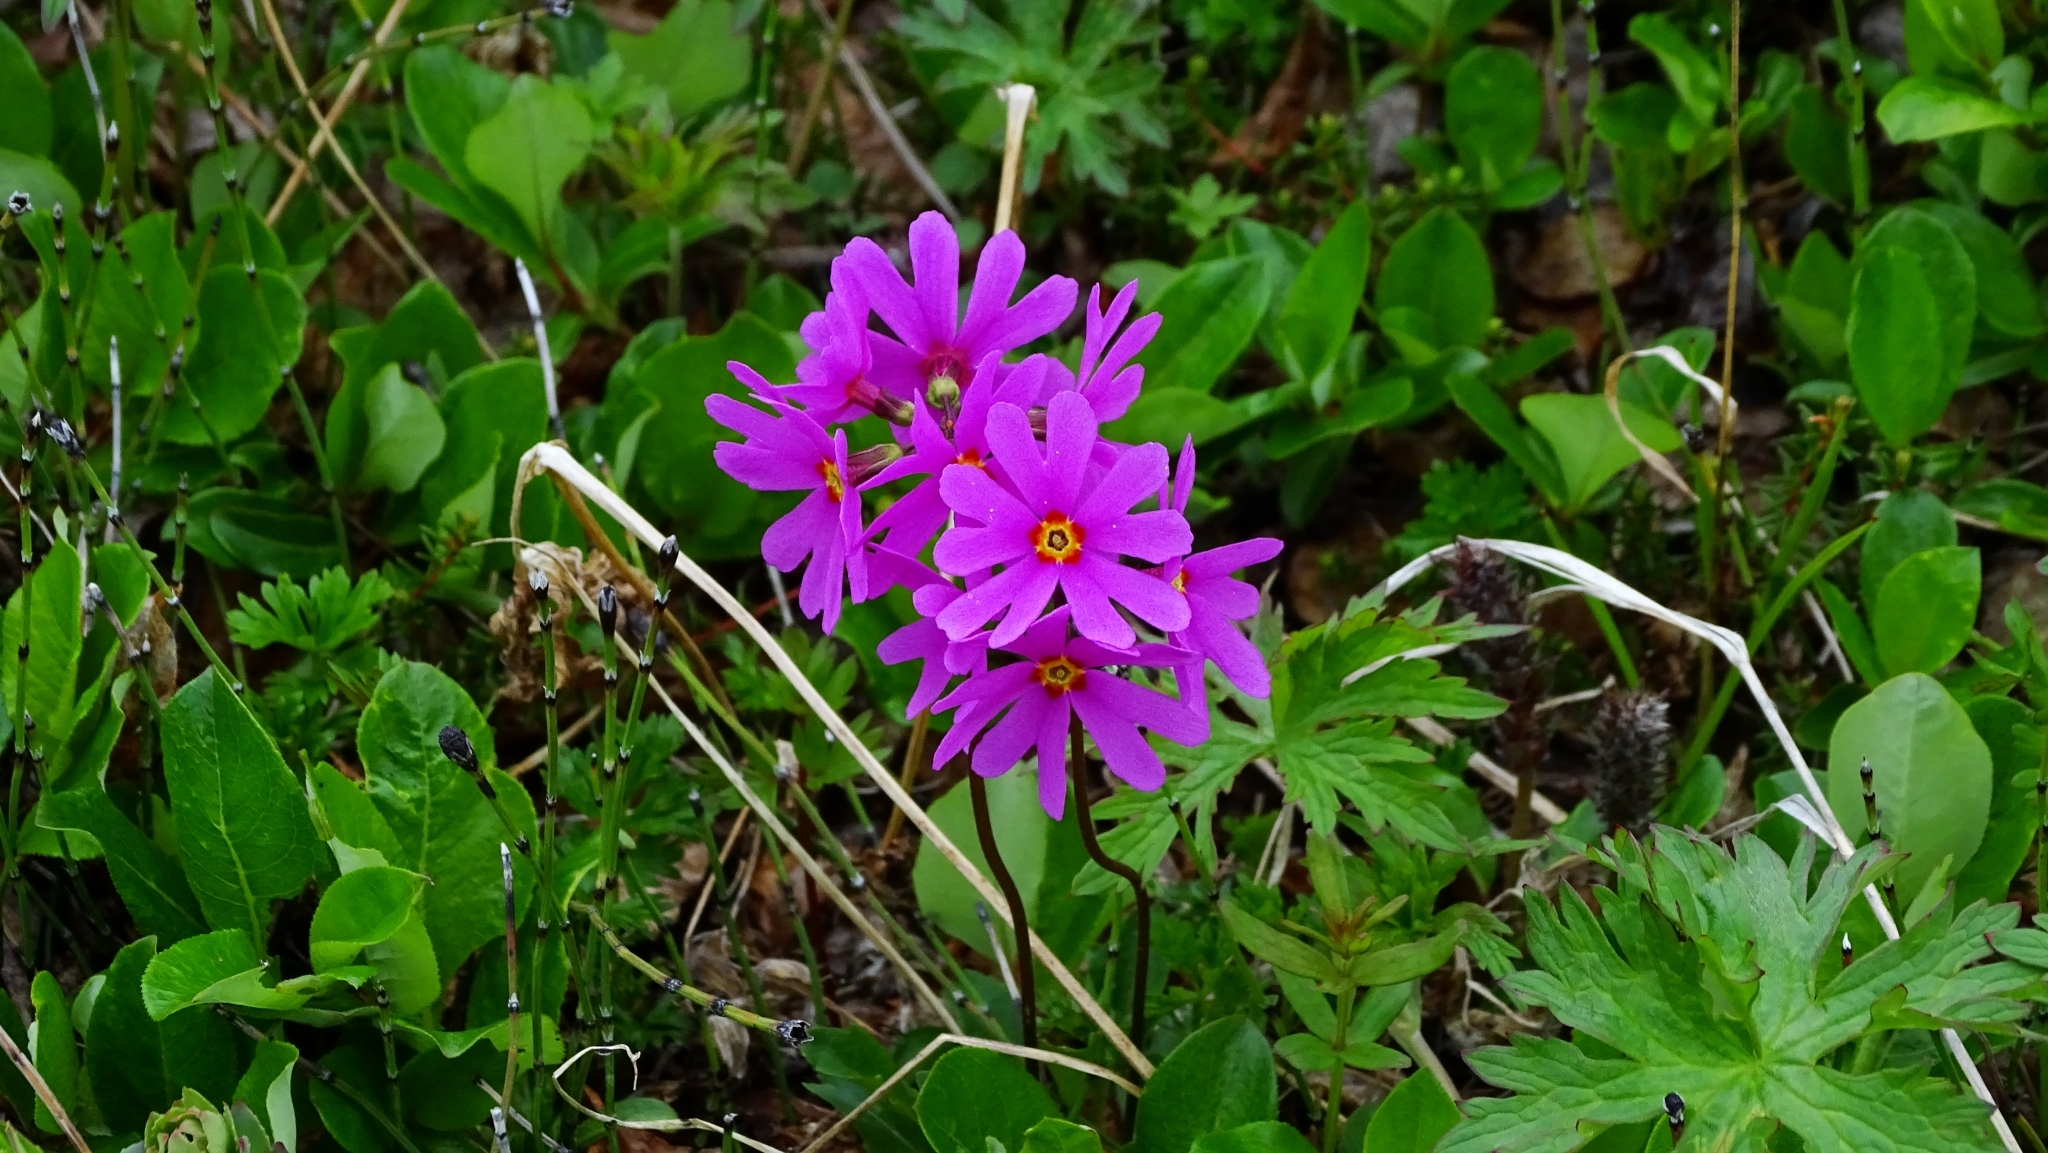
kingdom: Plantae
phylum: Tracheophyta
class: Magnoliopsida
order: Ericales
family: Primulaceae
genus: Primula
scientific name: Primula cuneifolia
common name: Wedge-leaved primrose
